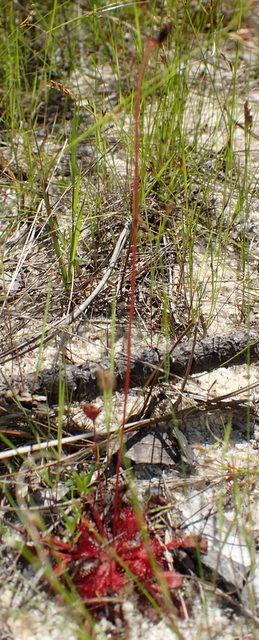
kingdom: Plantae
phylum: Tracheophyta
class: Magnoliopsida
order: Caryophyllales
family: Droseraceae
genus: Drosera
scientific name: Drosera capillaris
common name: Pink sundew
